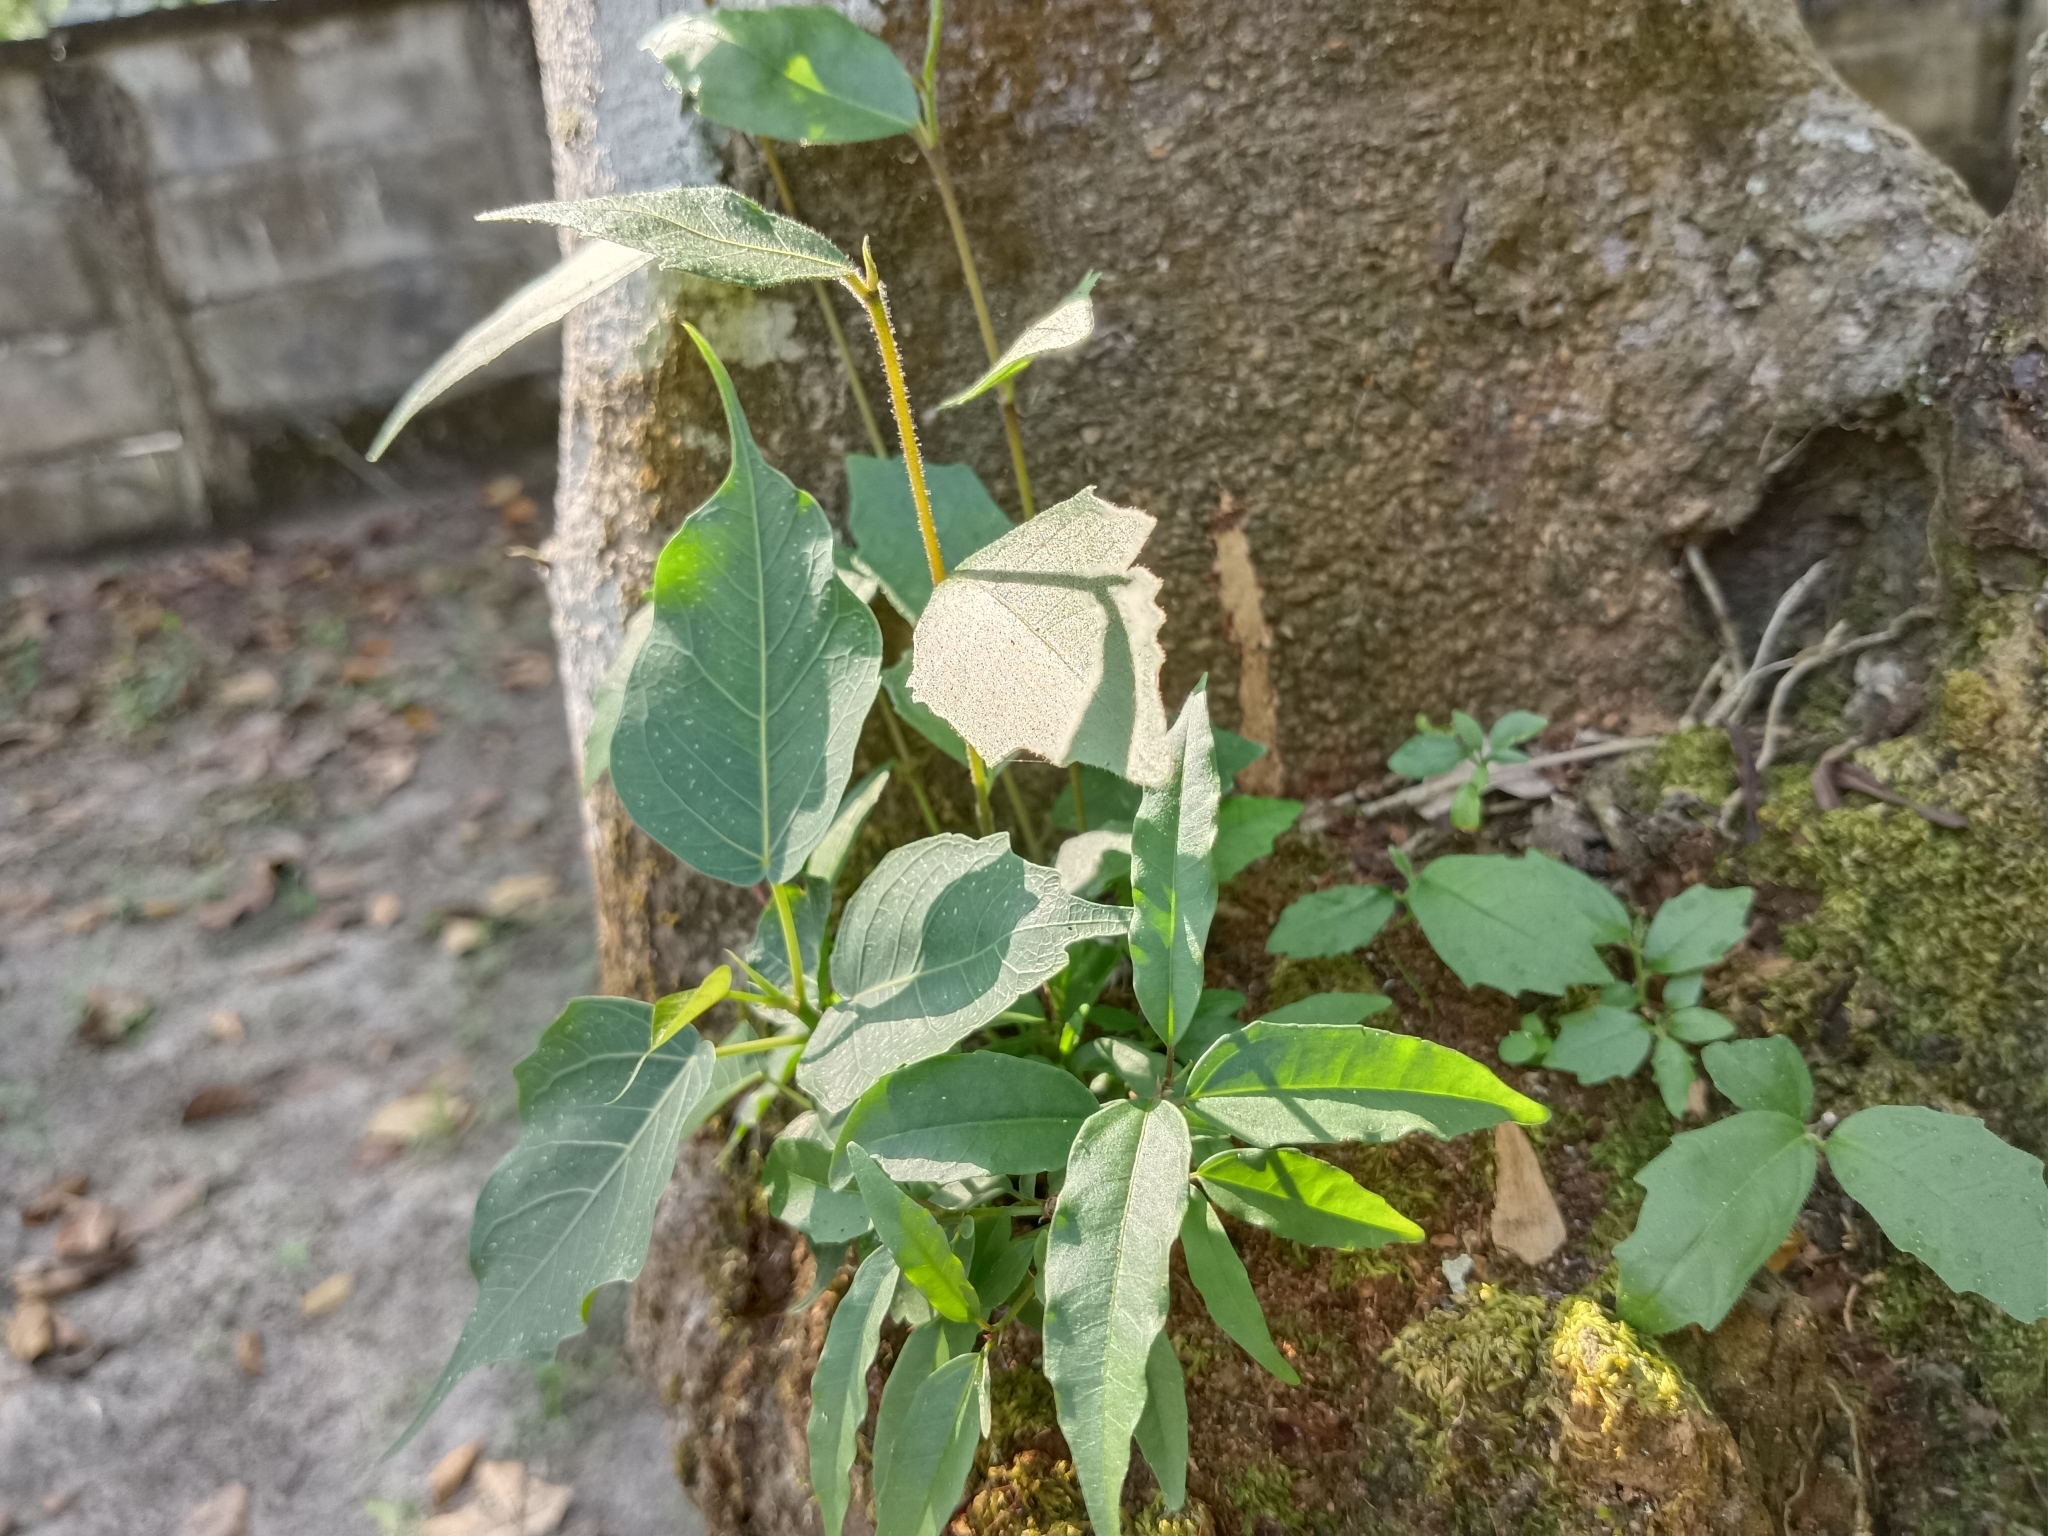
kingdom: Plantae
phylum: Tracheophyta
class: Magnoliopsida
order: Rosales
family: Moraceae
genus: Ficus
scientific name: Ficus religiosa
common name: Bodhi tree
